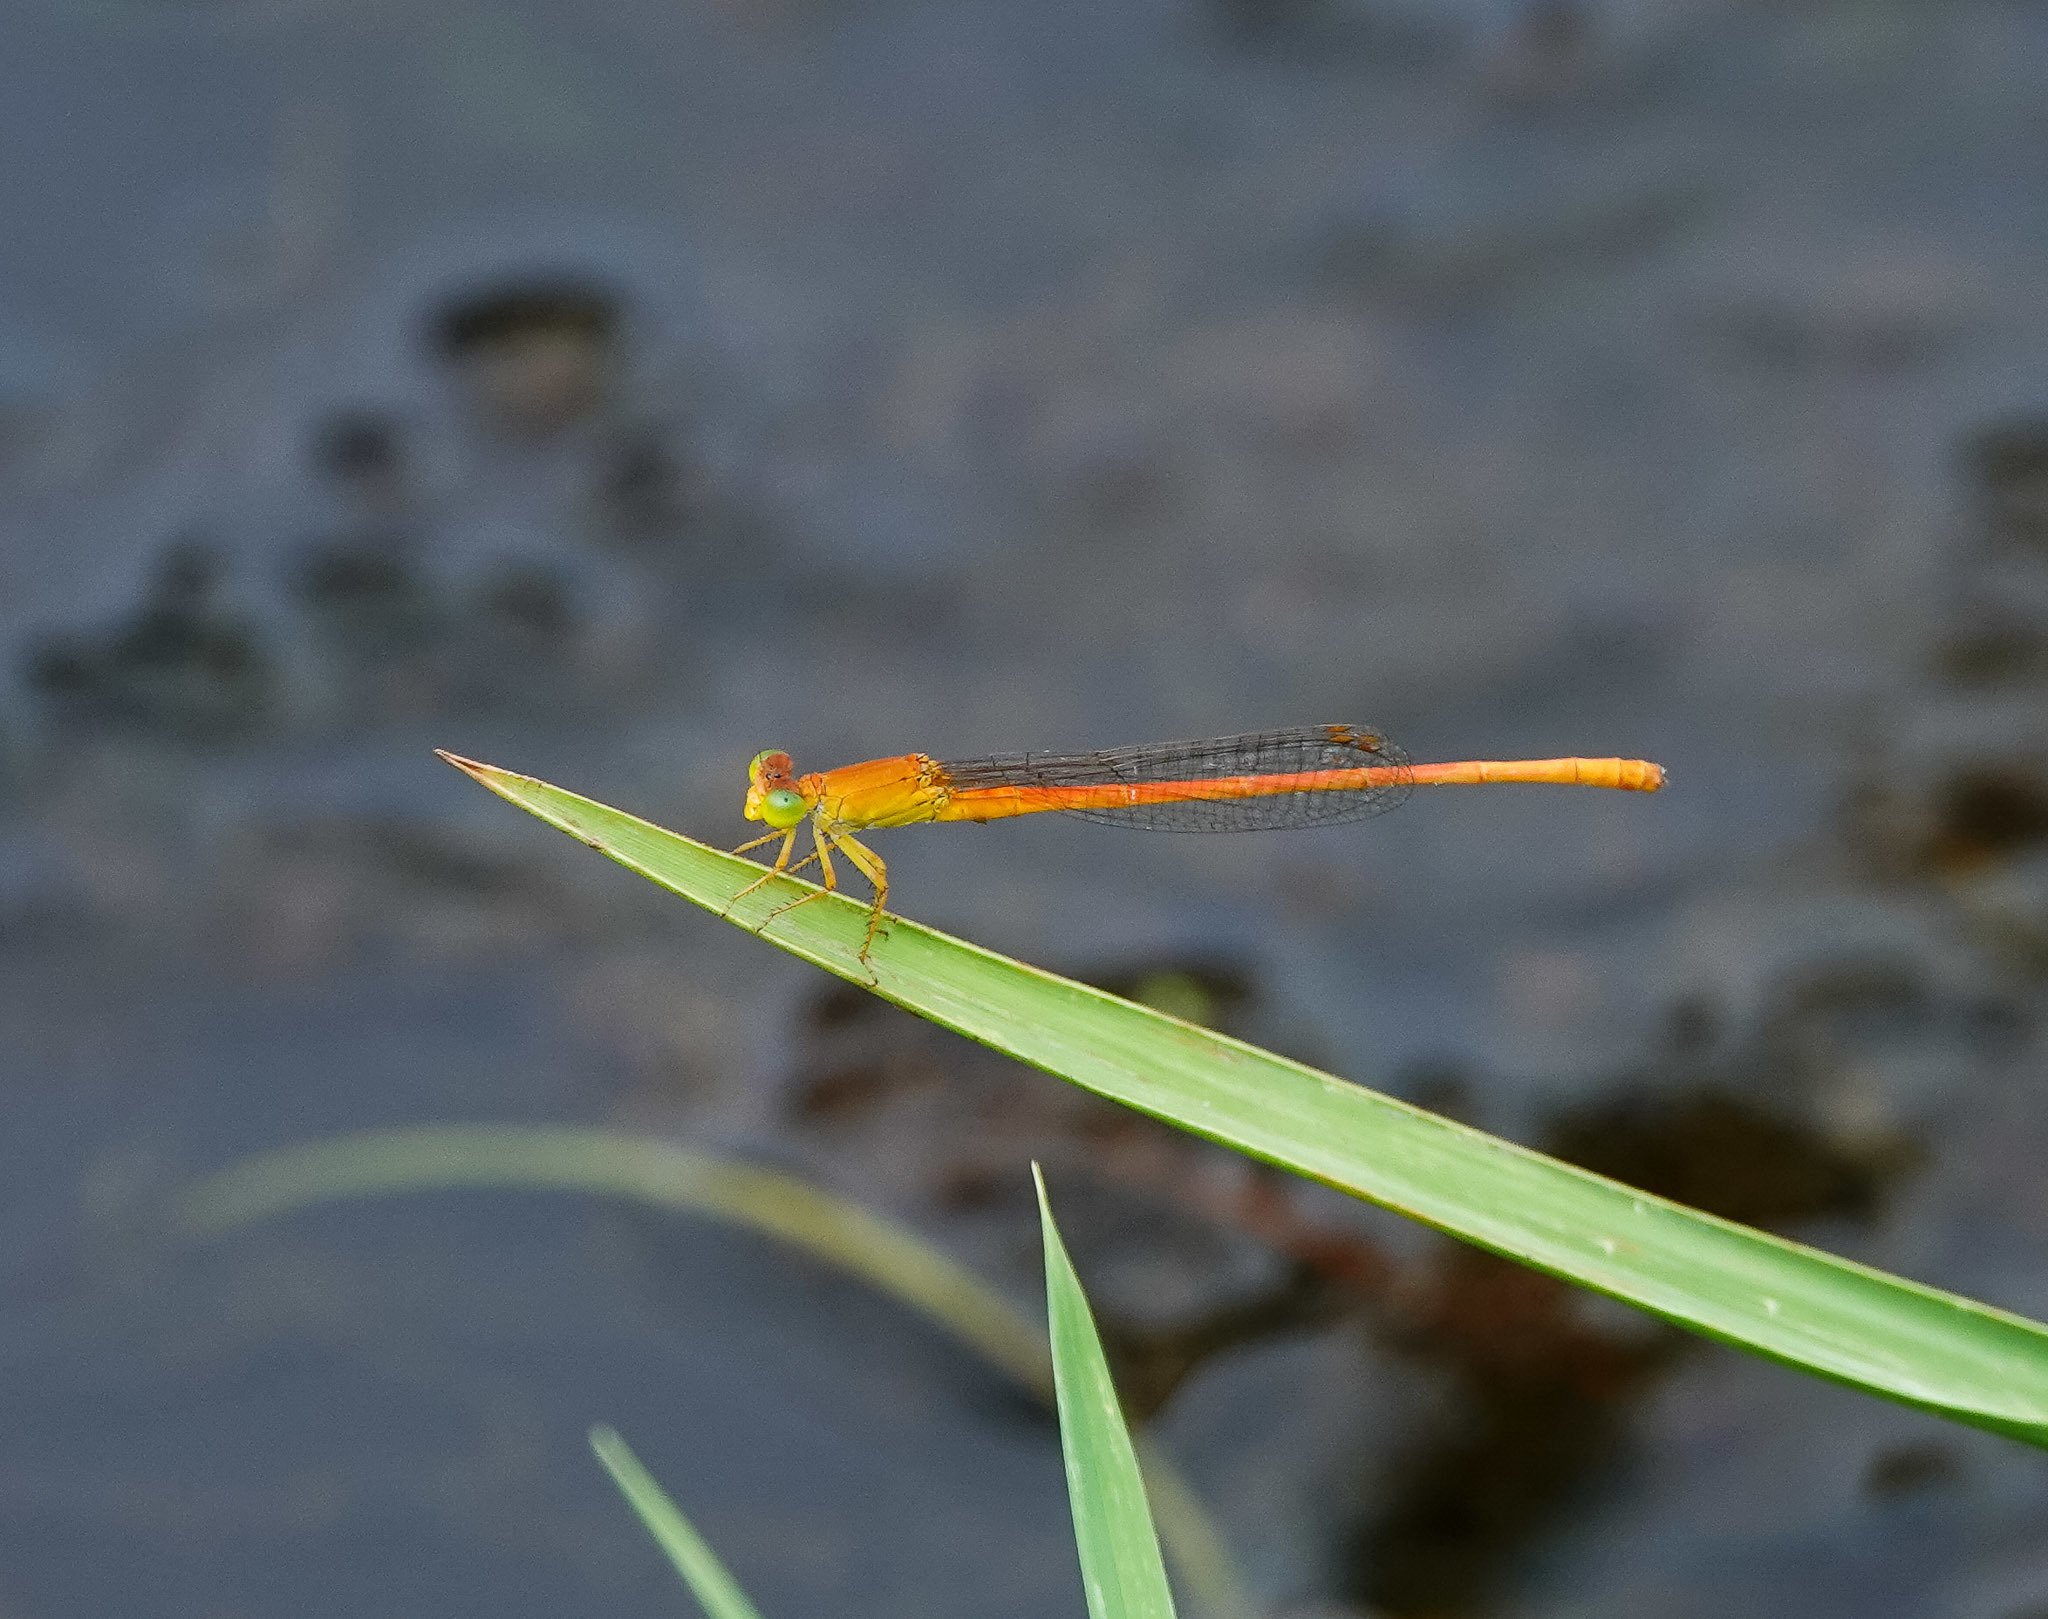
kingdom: Animalia
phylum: Arthropoda
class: Insecta
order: Odonata
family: Coenagrionidae
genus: Ceriagrion
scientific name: Ceriagrion rubiae
